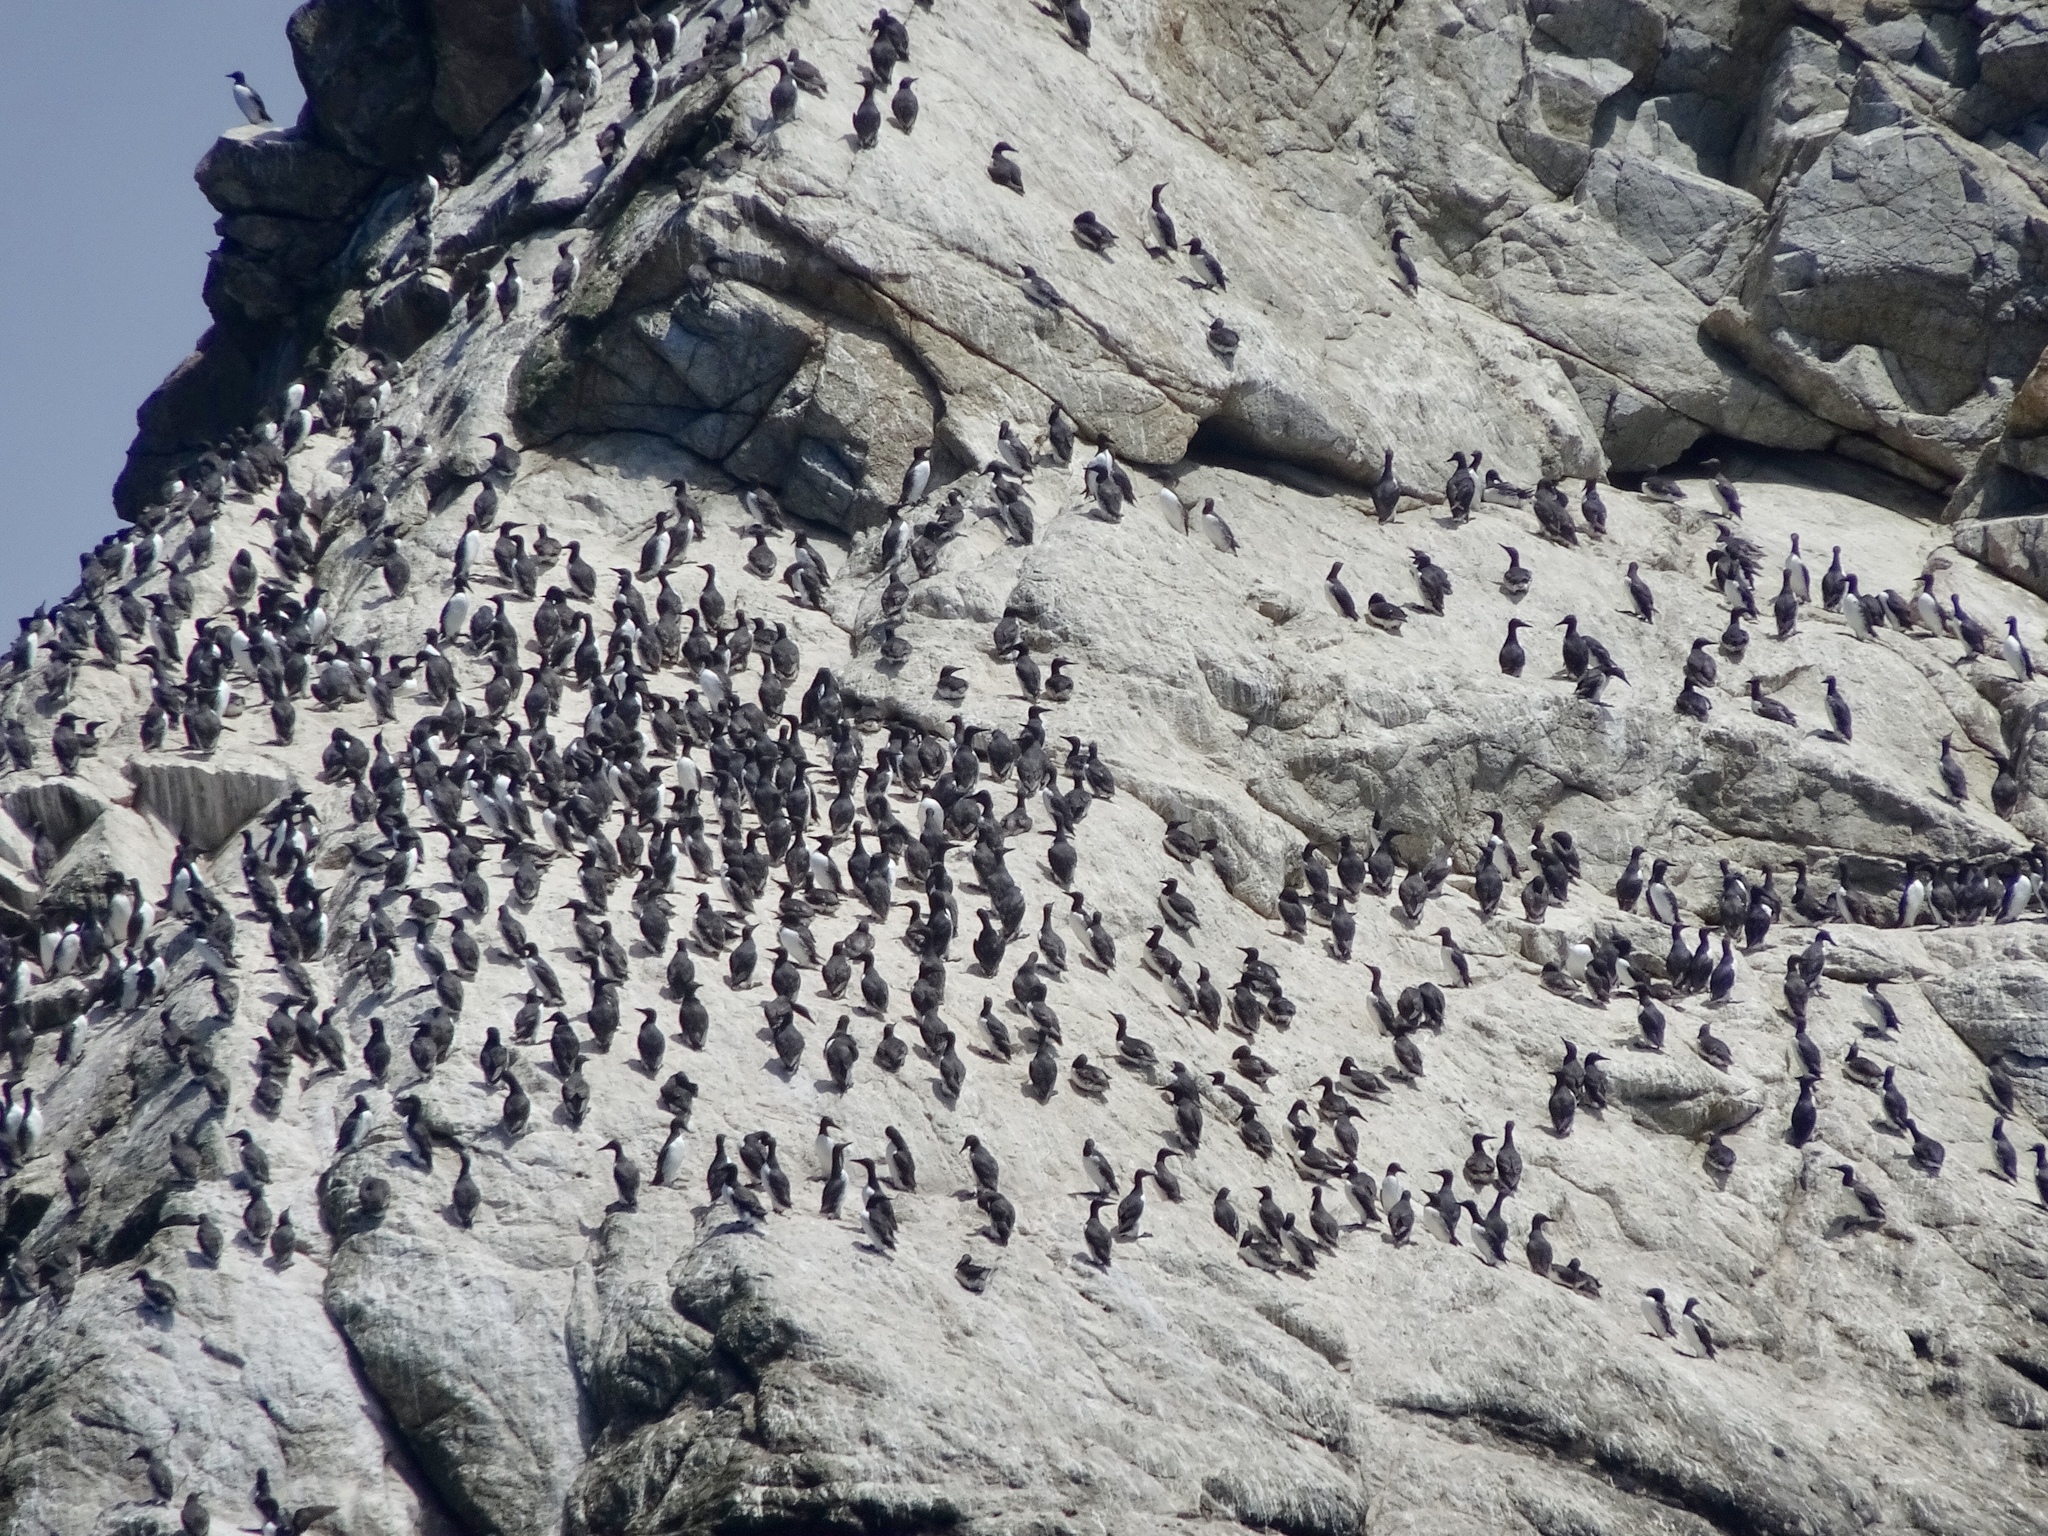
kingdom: Animalia
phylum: Chordata
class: Aves
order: Charadriiformes
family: Alcidae
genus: Uria
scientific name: Uria aalge
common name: Common murre
